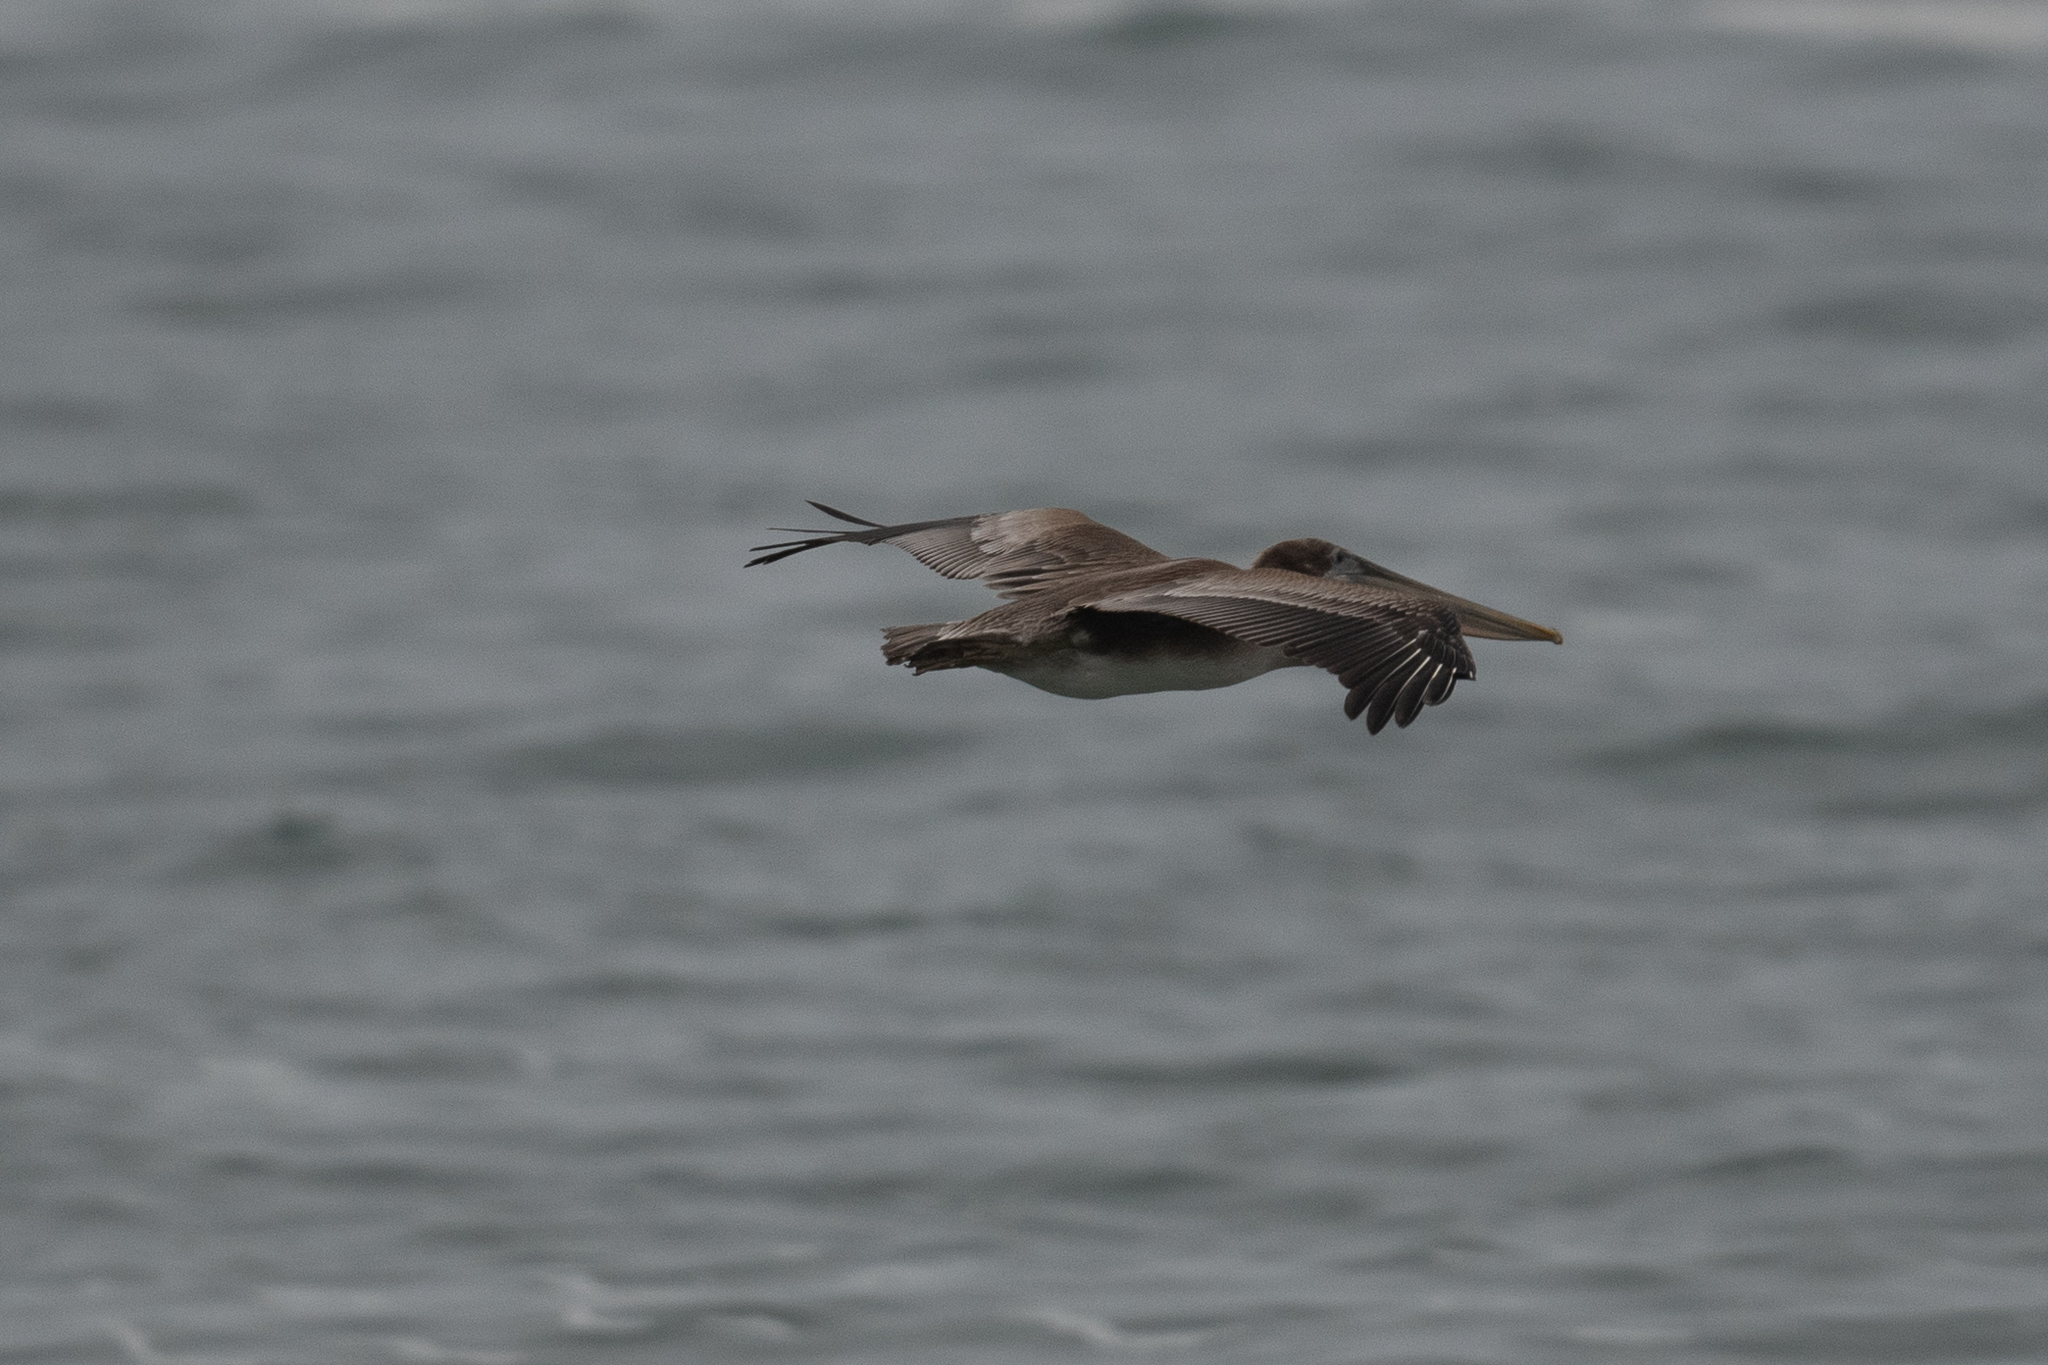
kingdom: Animalia
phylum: Chordata
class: Aves
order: Pelecaniformes
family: Pelecanidae
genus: Pelecanus
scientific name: Pelecanus occidentalis
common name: Brown pelican
